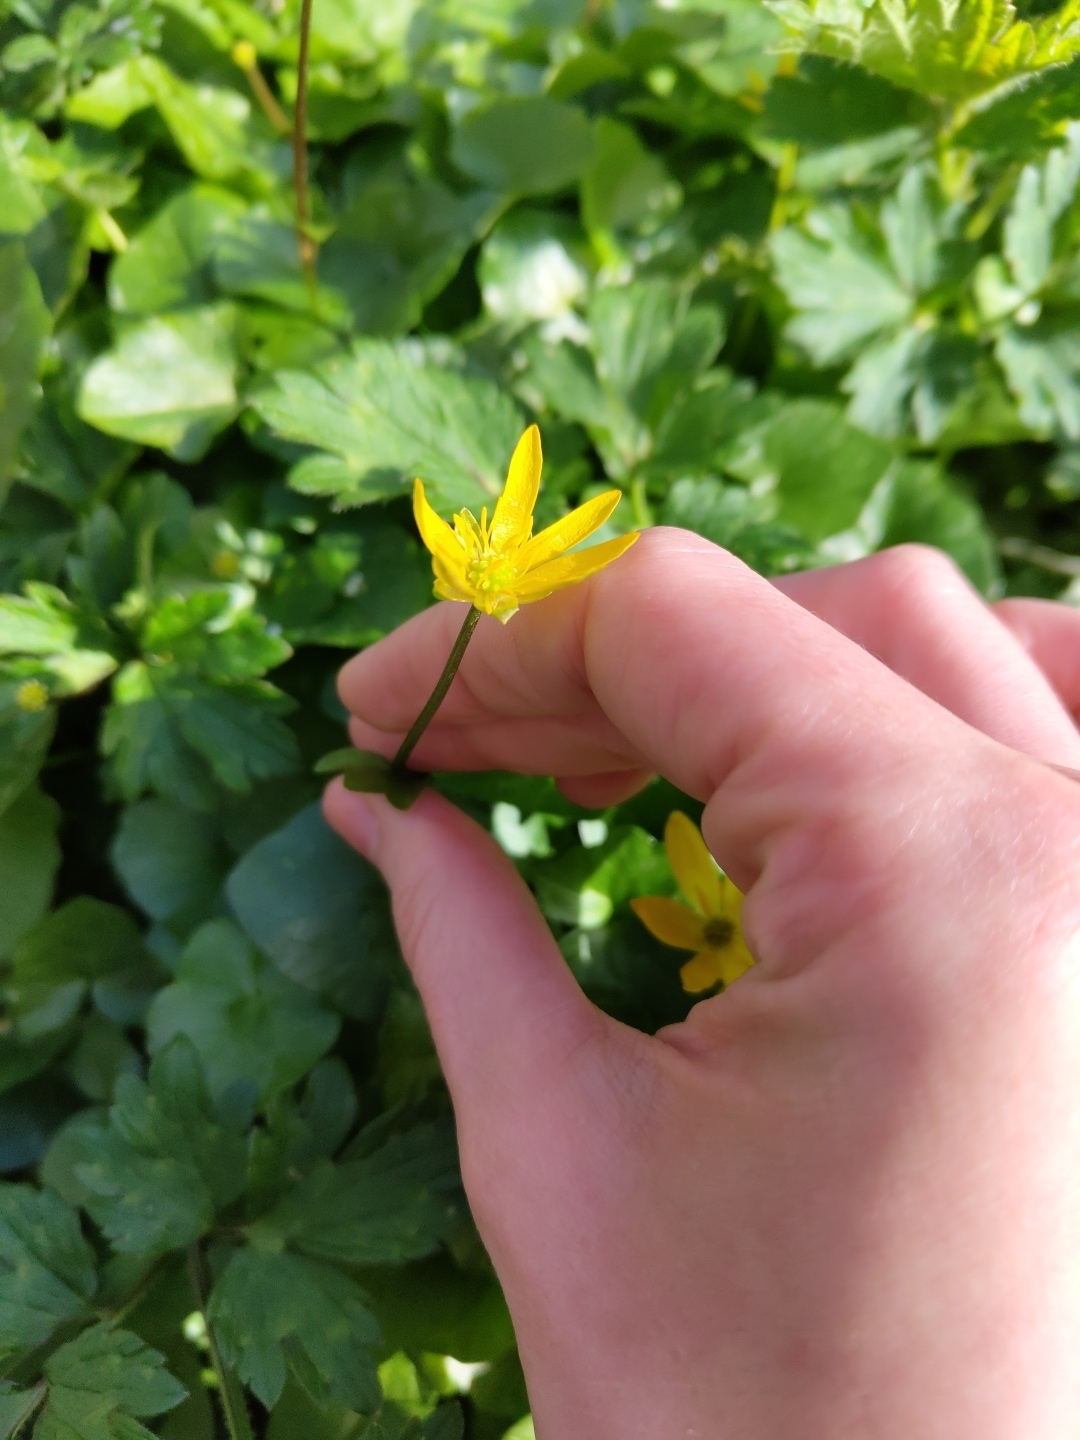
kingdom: Plantae
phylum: Tracheophyta
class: Magnoliopsida
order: Ranunculales
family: Ranunculaceae
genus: Ficaria
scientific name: Ficaria verna
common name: Lesser celandine
